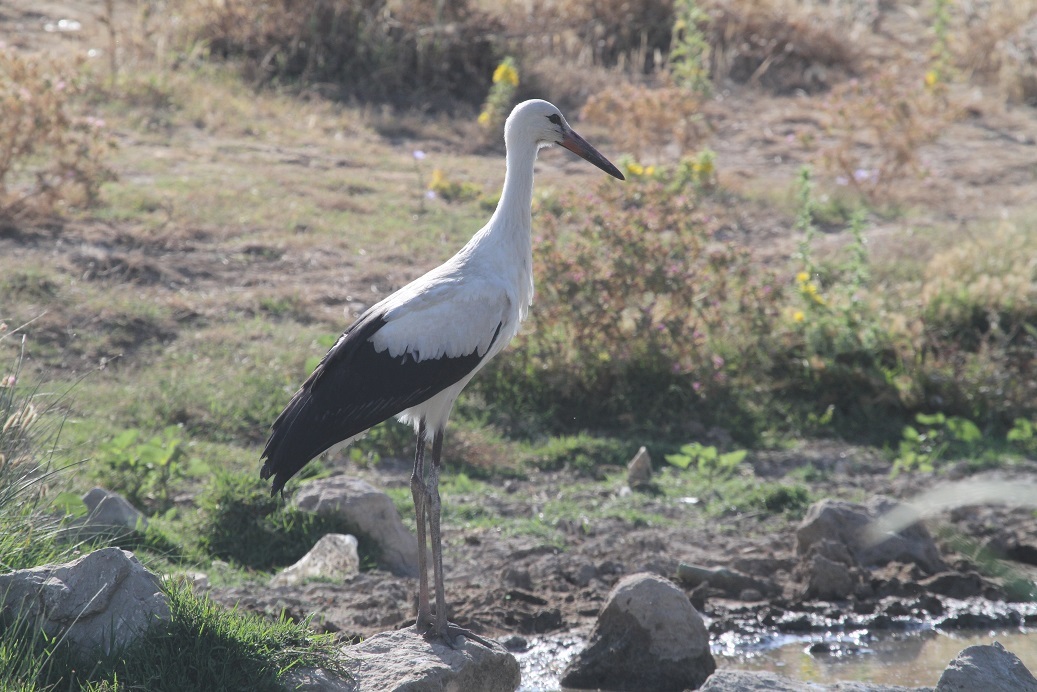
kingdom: Animalia
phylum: Chordata
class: Aves
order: Ciconiiformes
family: Ciconiidae
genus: Ciconia
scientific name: Ciconia ciconia
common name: White stork
